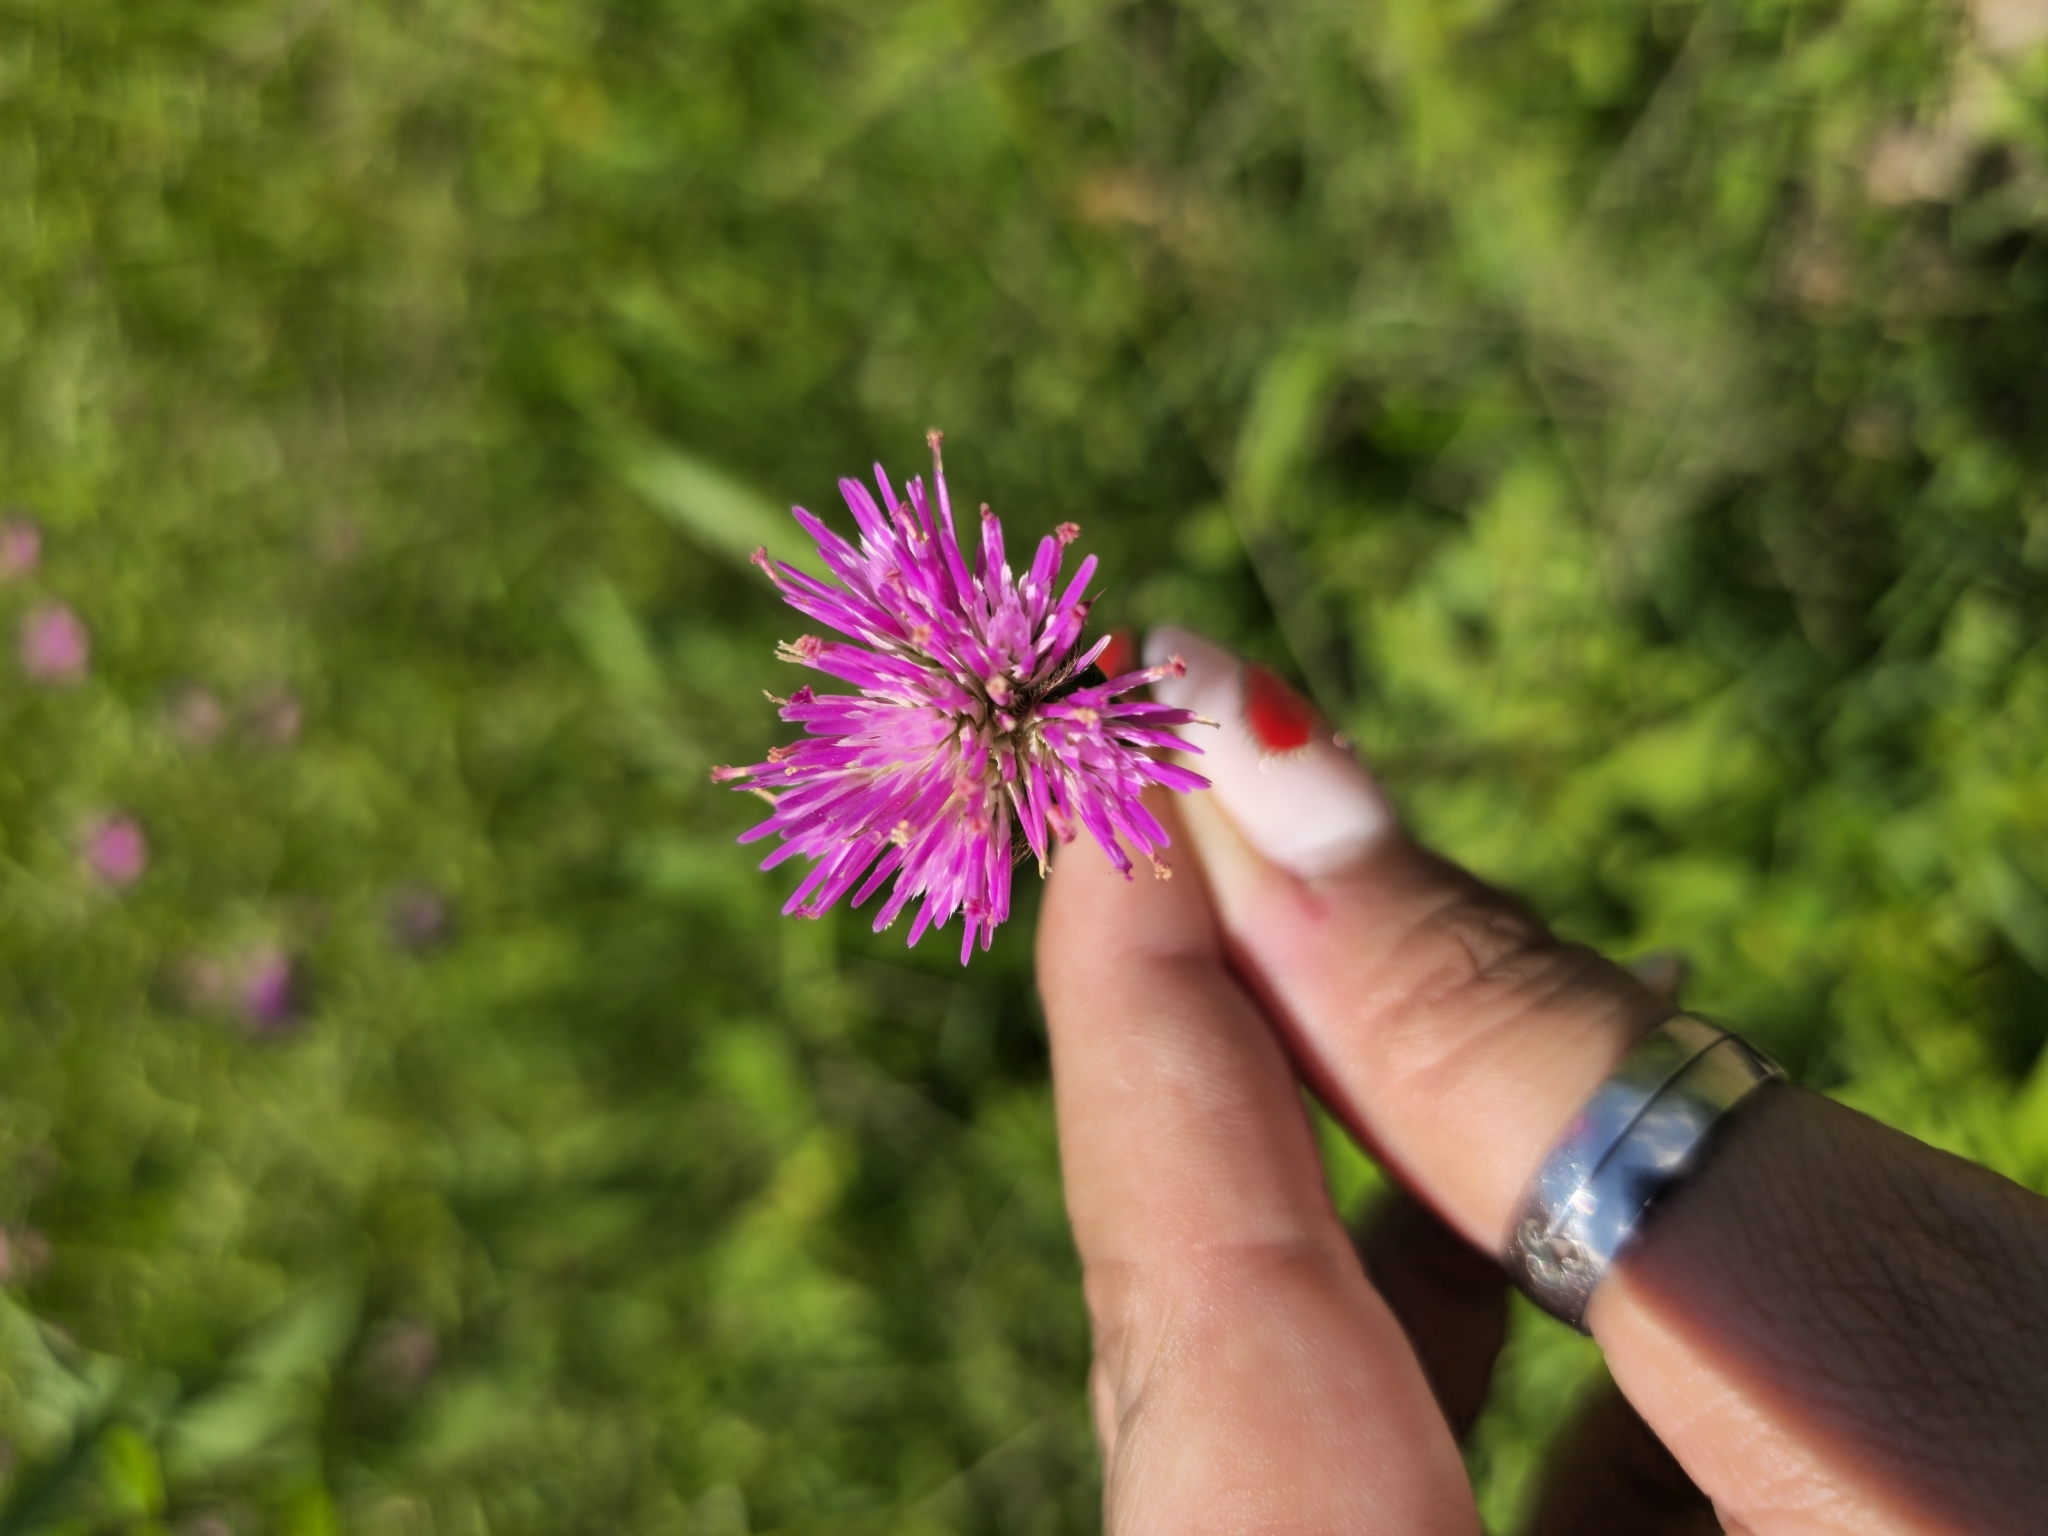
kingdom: Plantae
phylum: Tracheophyta
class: Magnoliopsida
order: Caryophyllales
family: Amaranthaceae
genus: Gomphrena
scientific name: Gomphrena pulchella
